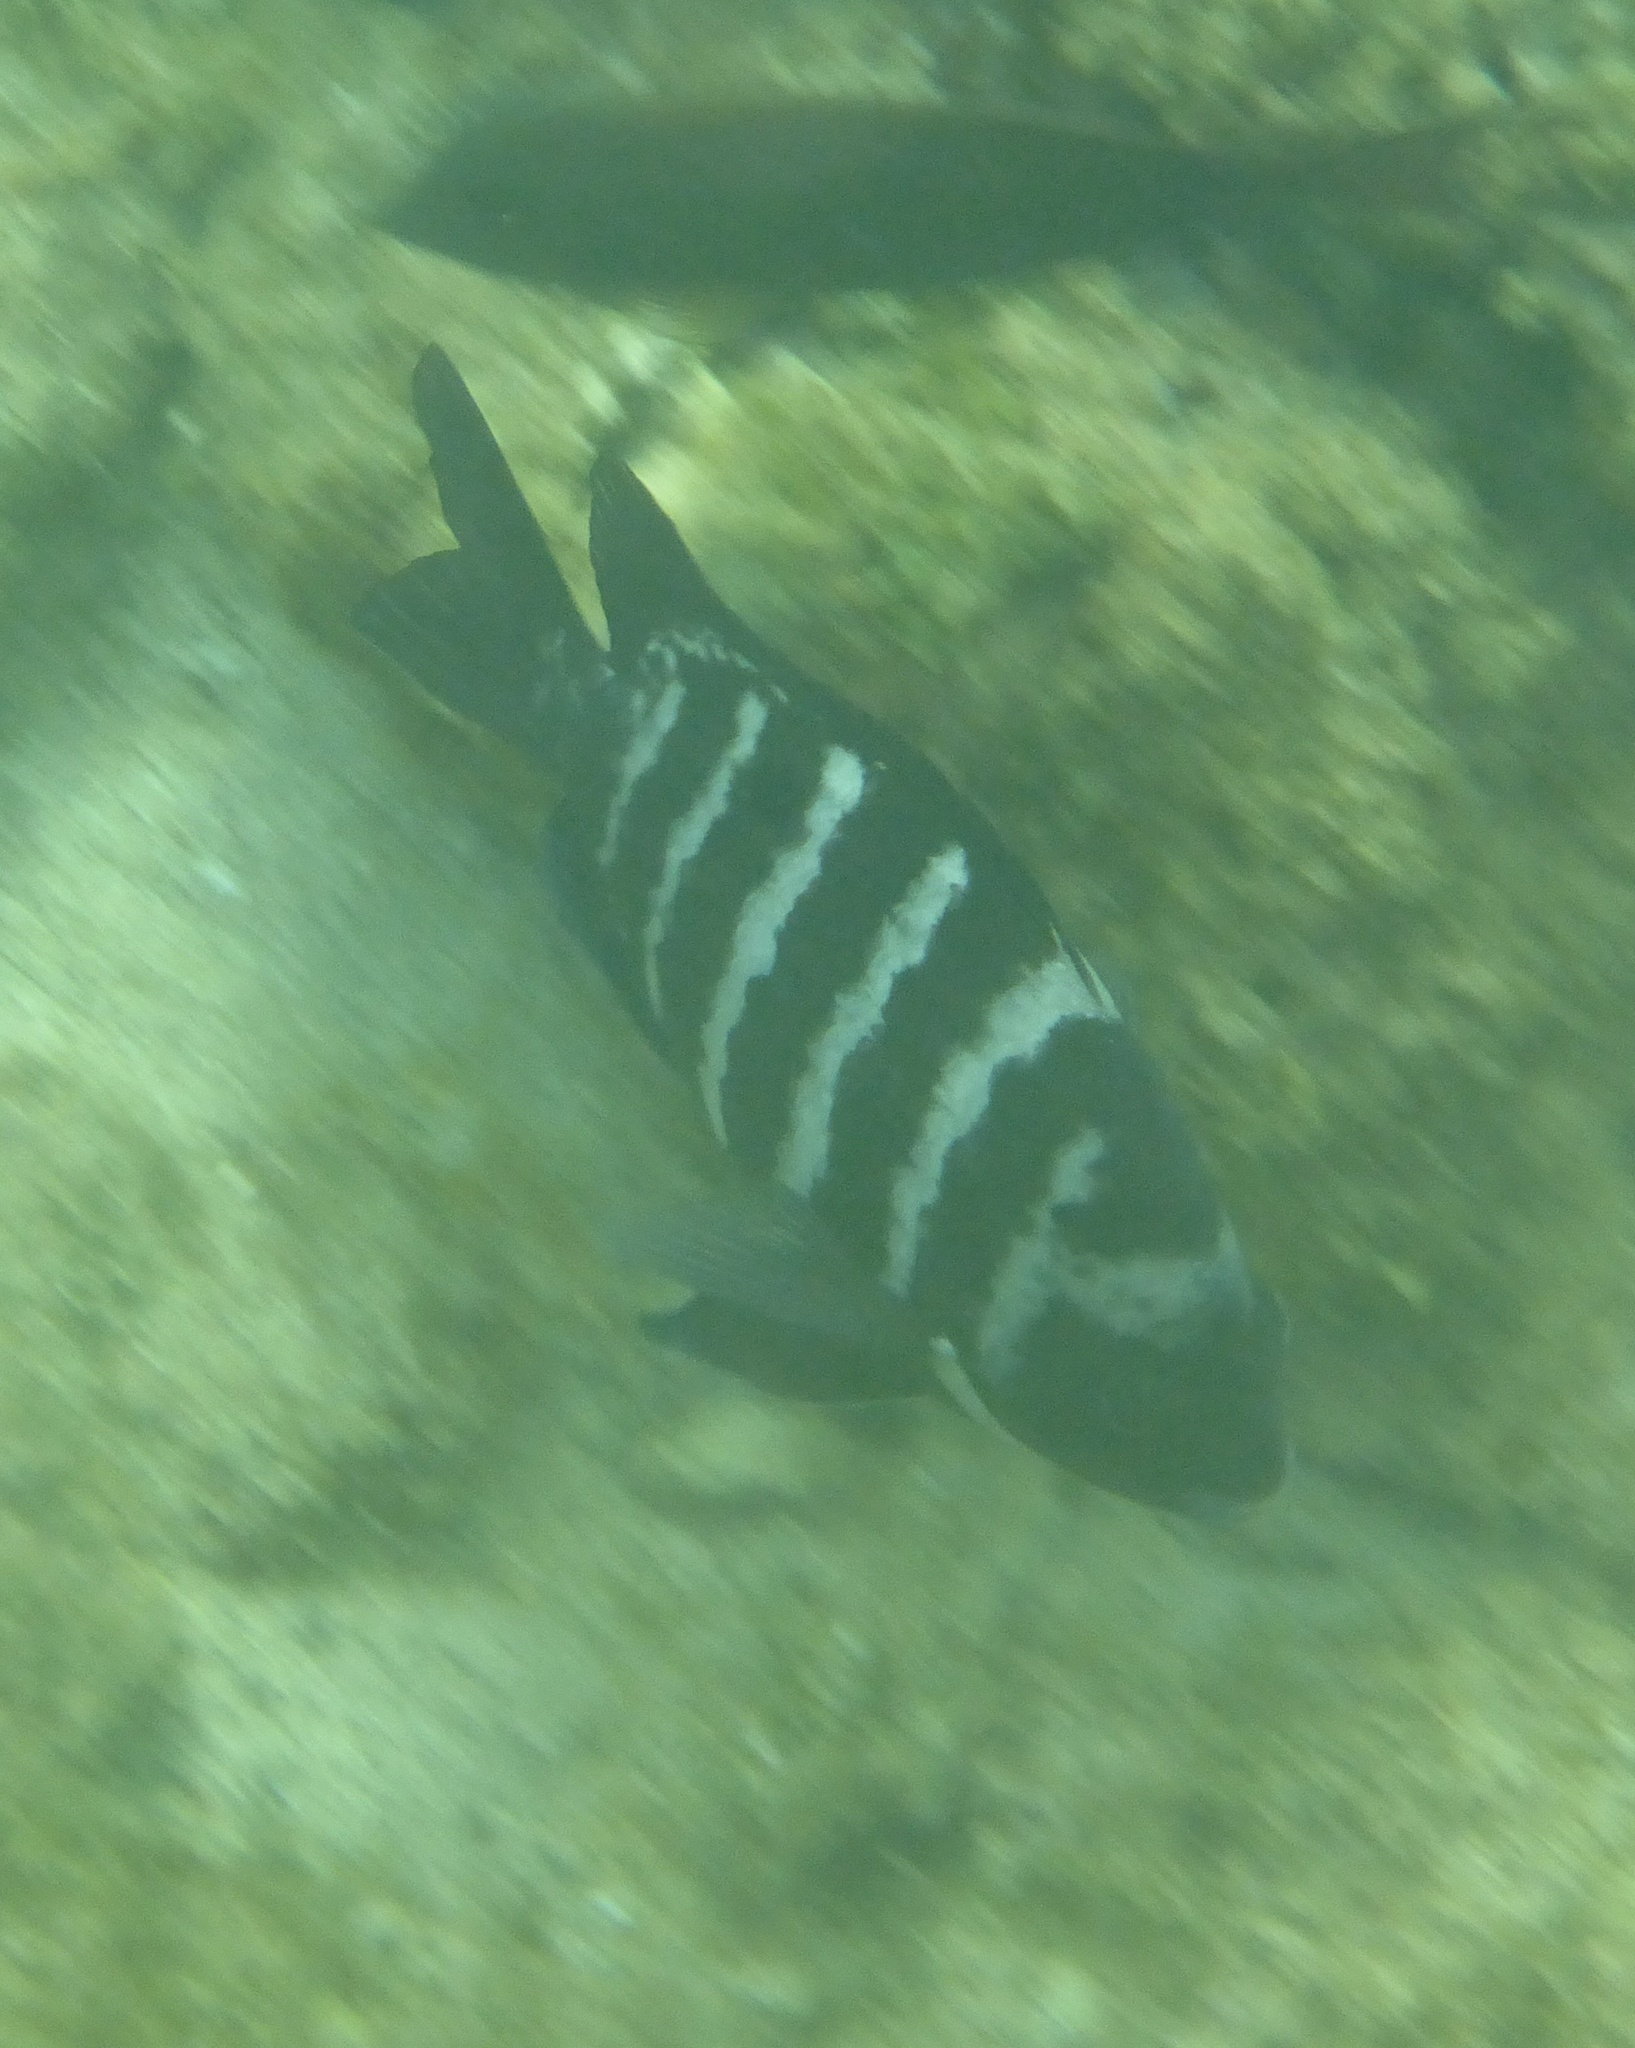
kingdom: Animalia
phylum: Chordata
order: Perciformes
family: Pomacentridae
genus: Abudefduf
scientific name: Abudefduf sordidus
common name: Blackspot sergeant
